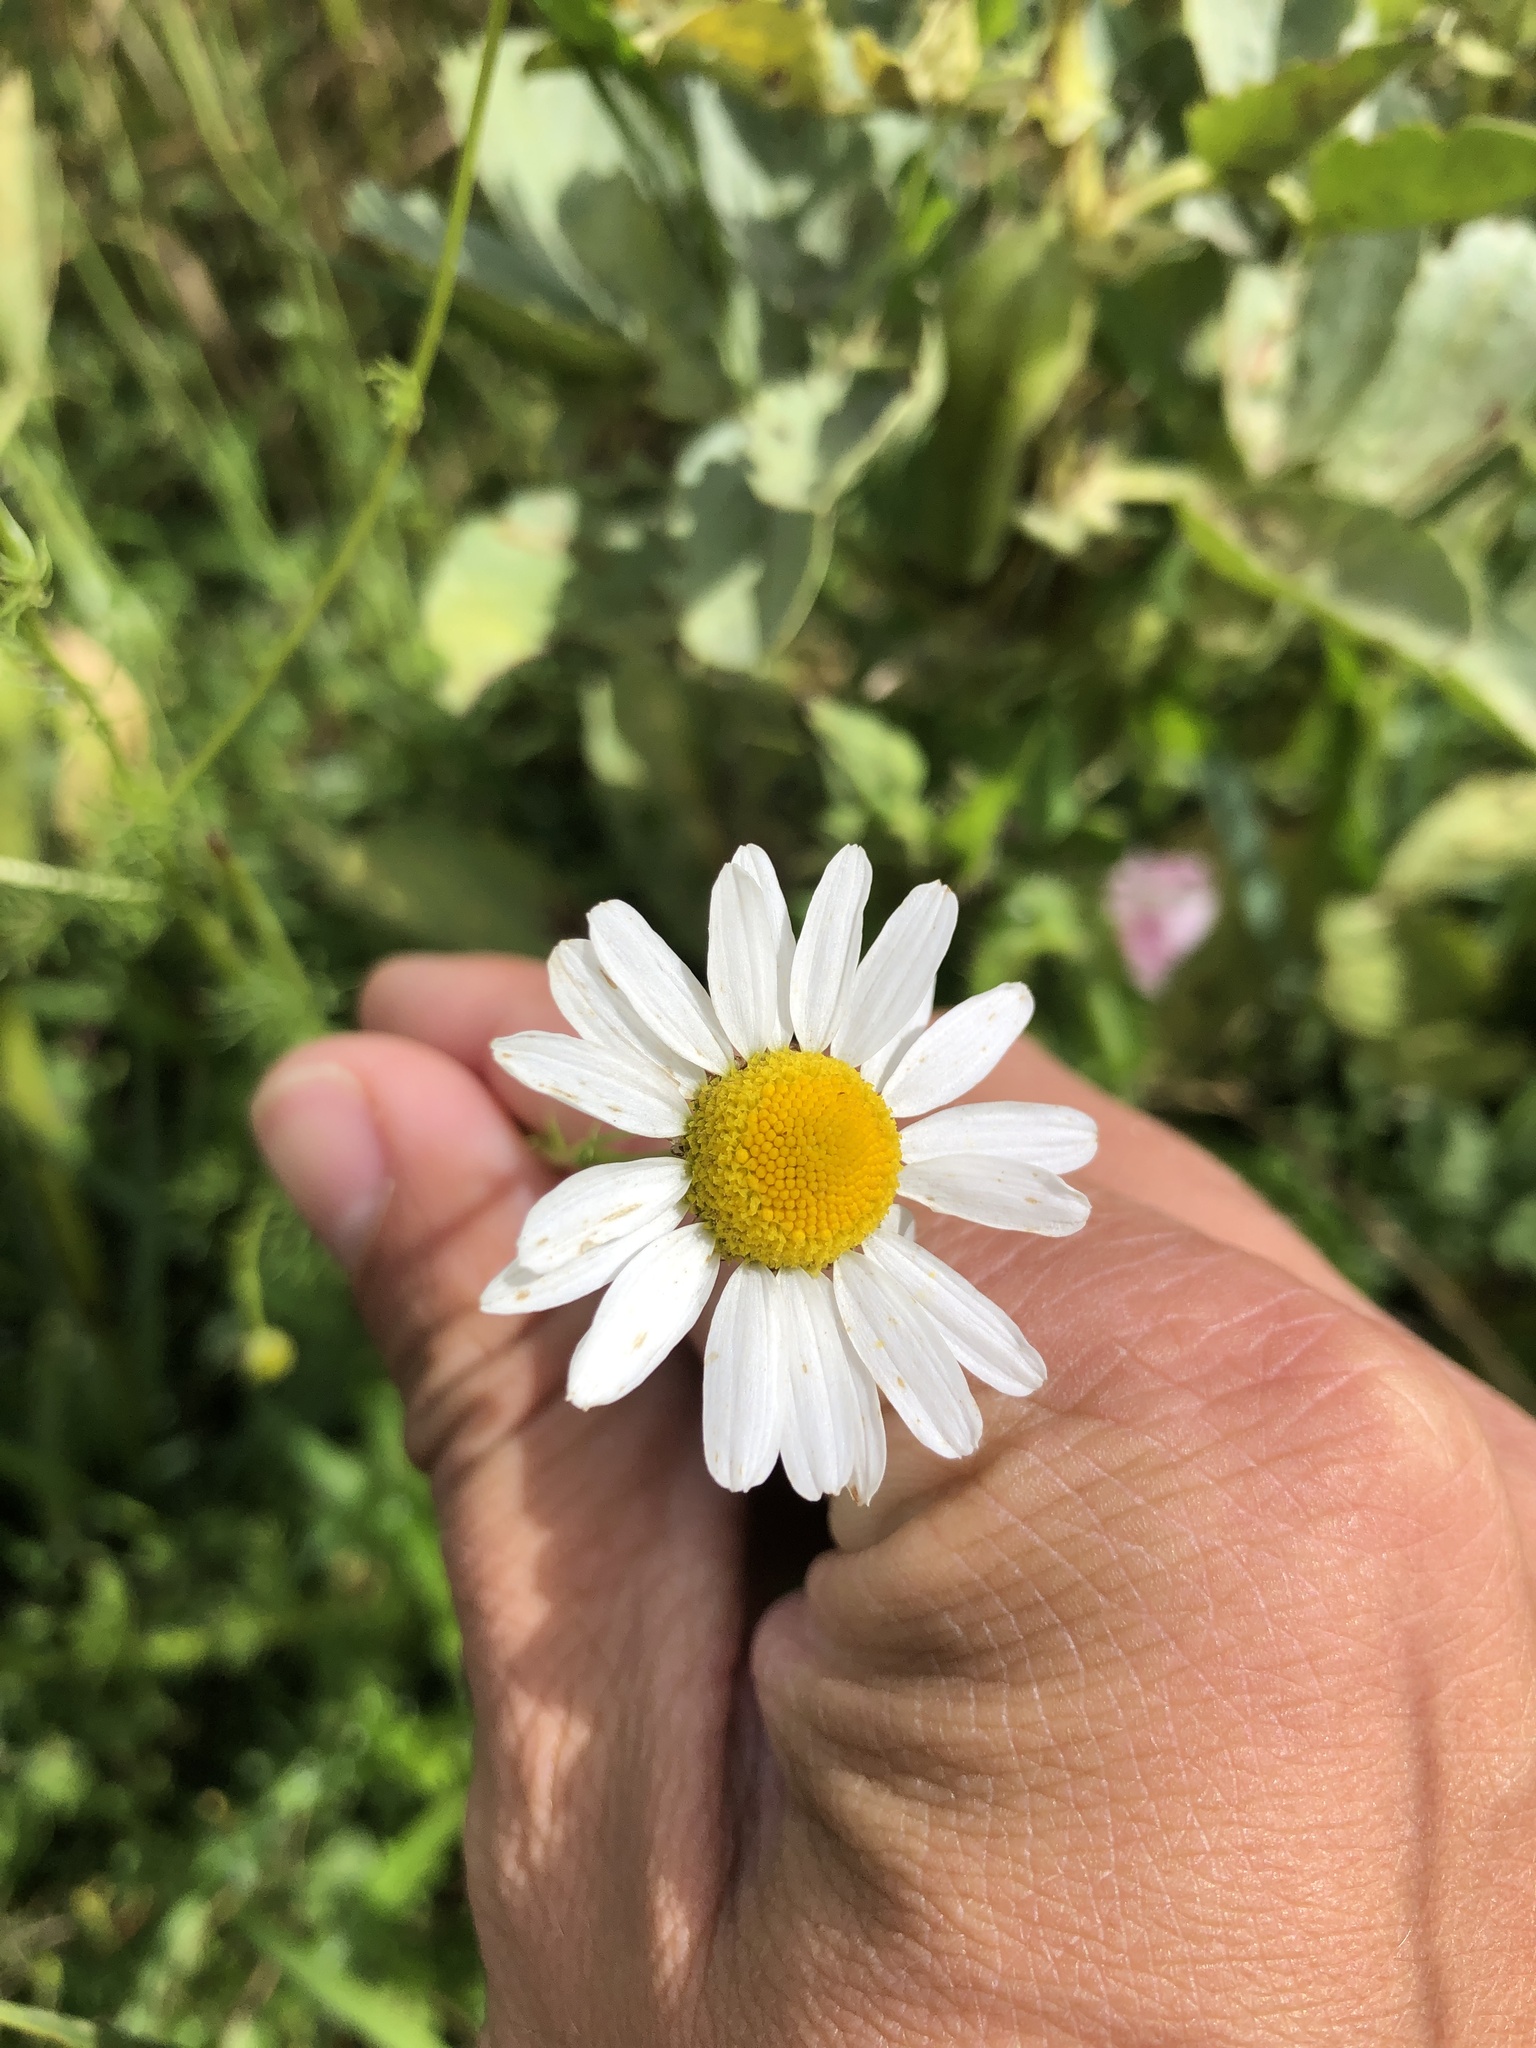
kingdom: Plantae
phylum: Tracheophyta
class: Magnoliopsida
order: Asterales
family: Asteraceae
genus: Tripleurospermum
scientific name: Tripleurospermum inodorum
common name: Scentless mayweed
